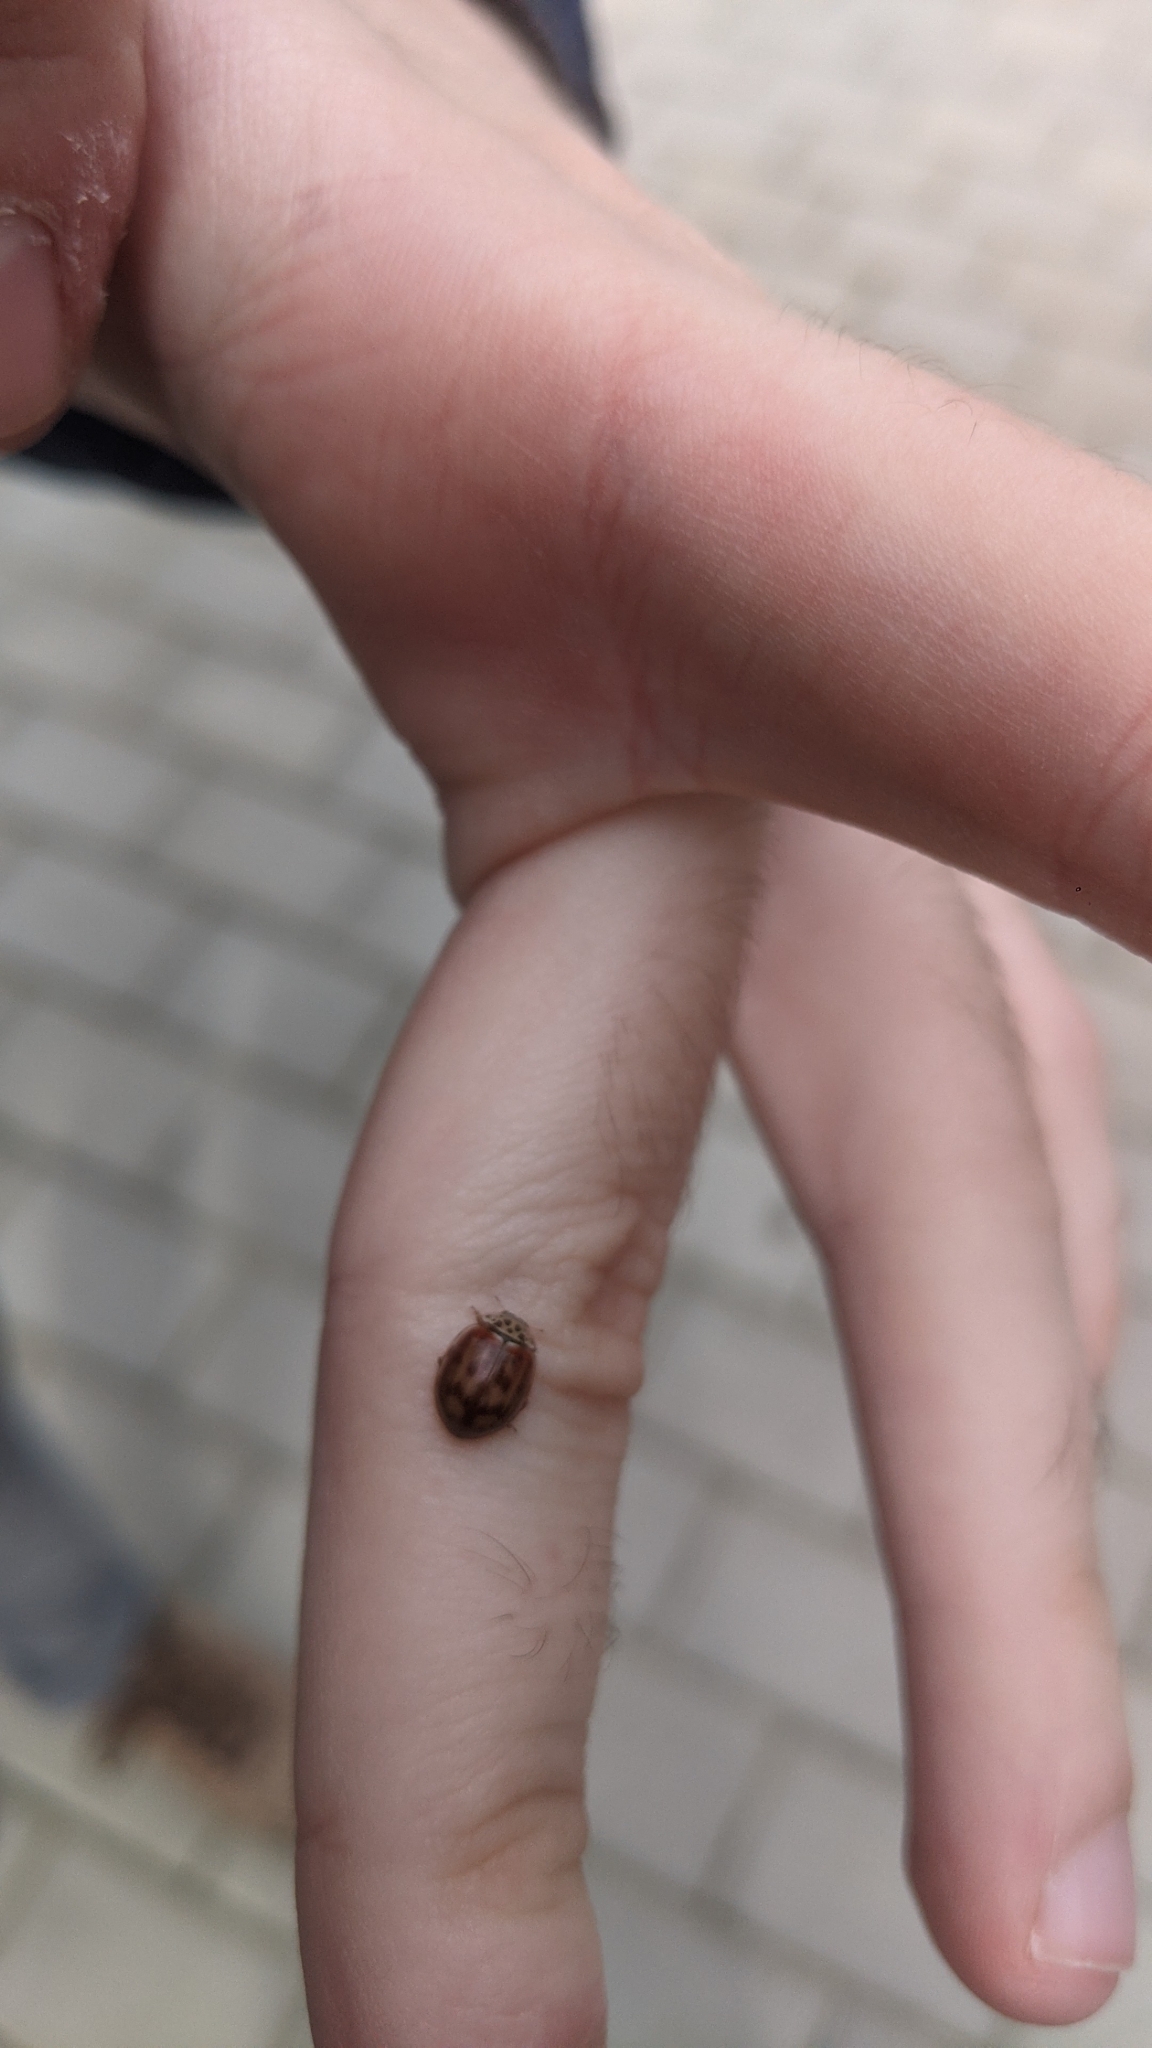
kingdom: Animalia
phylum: Arthropoda
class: Insecta
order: Coleoptera
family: Coccinellidae
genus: Harmonia
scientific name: Harmonia quadripunctata
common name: Cream-streaked ladybird
